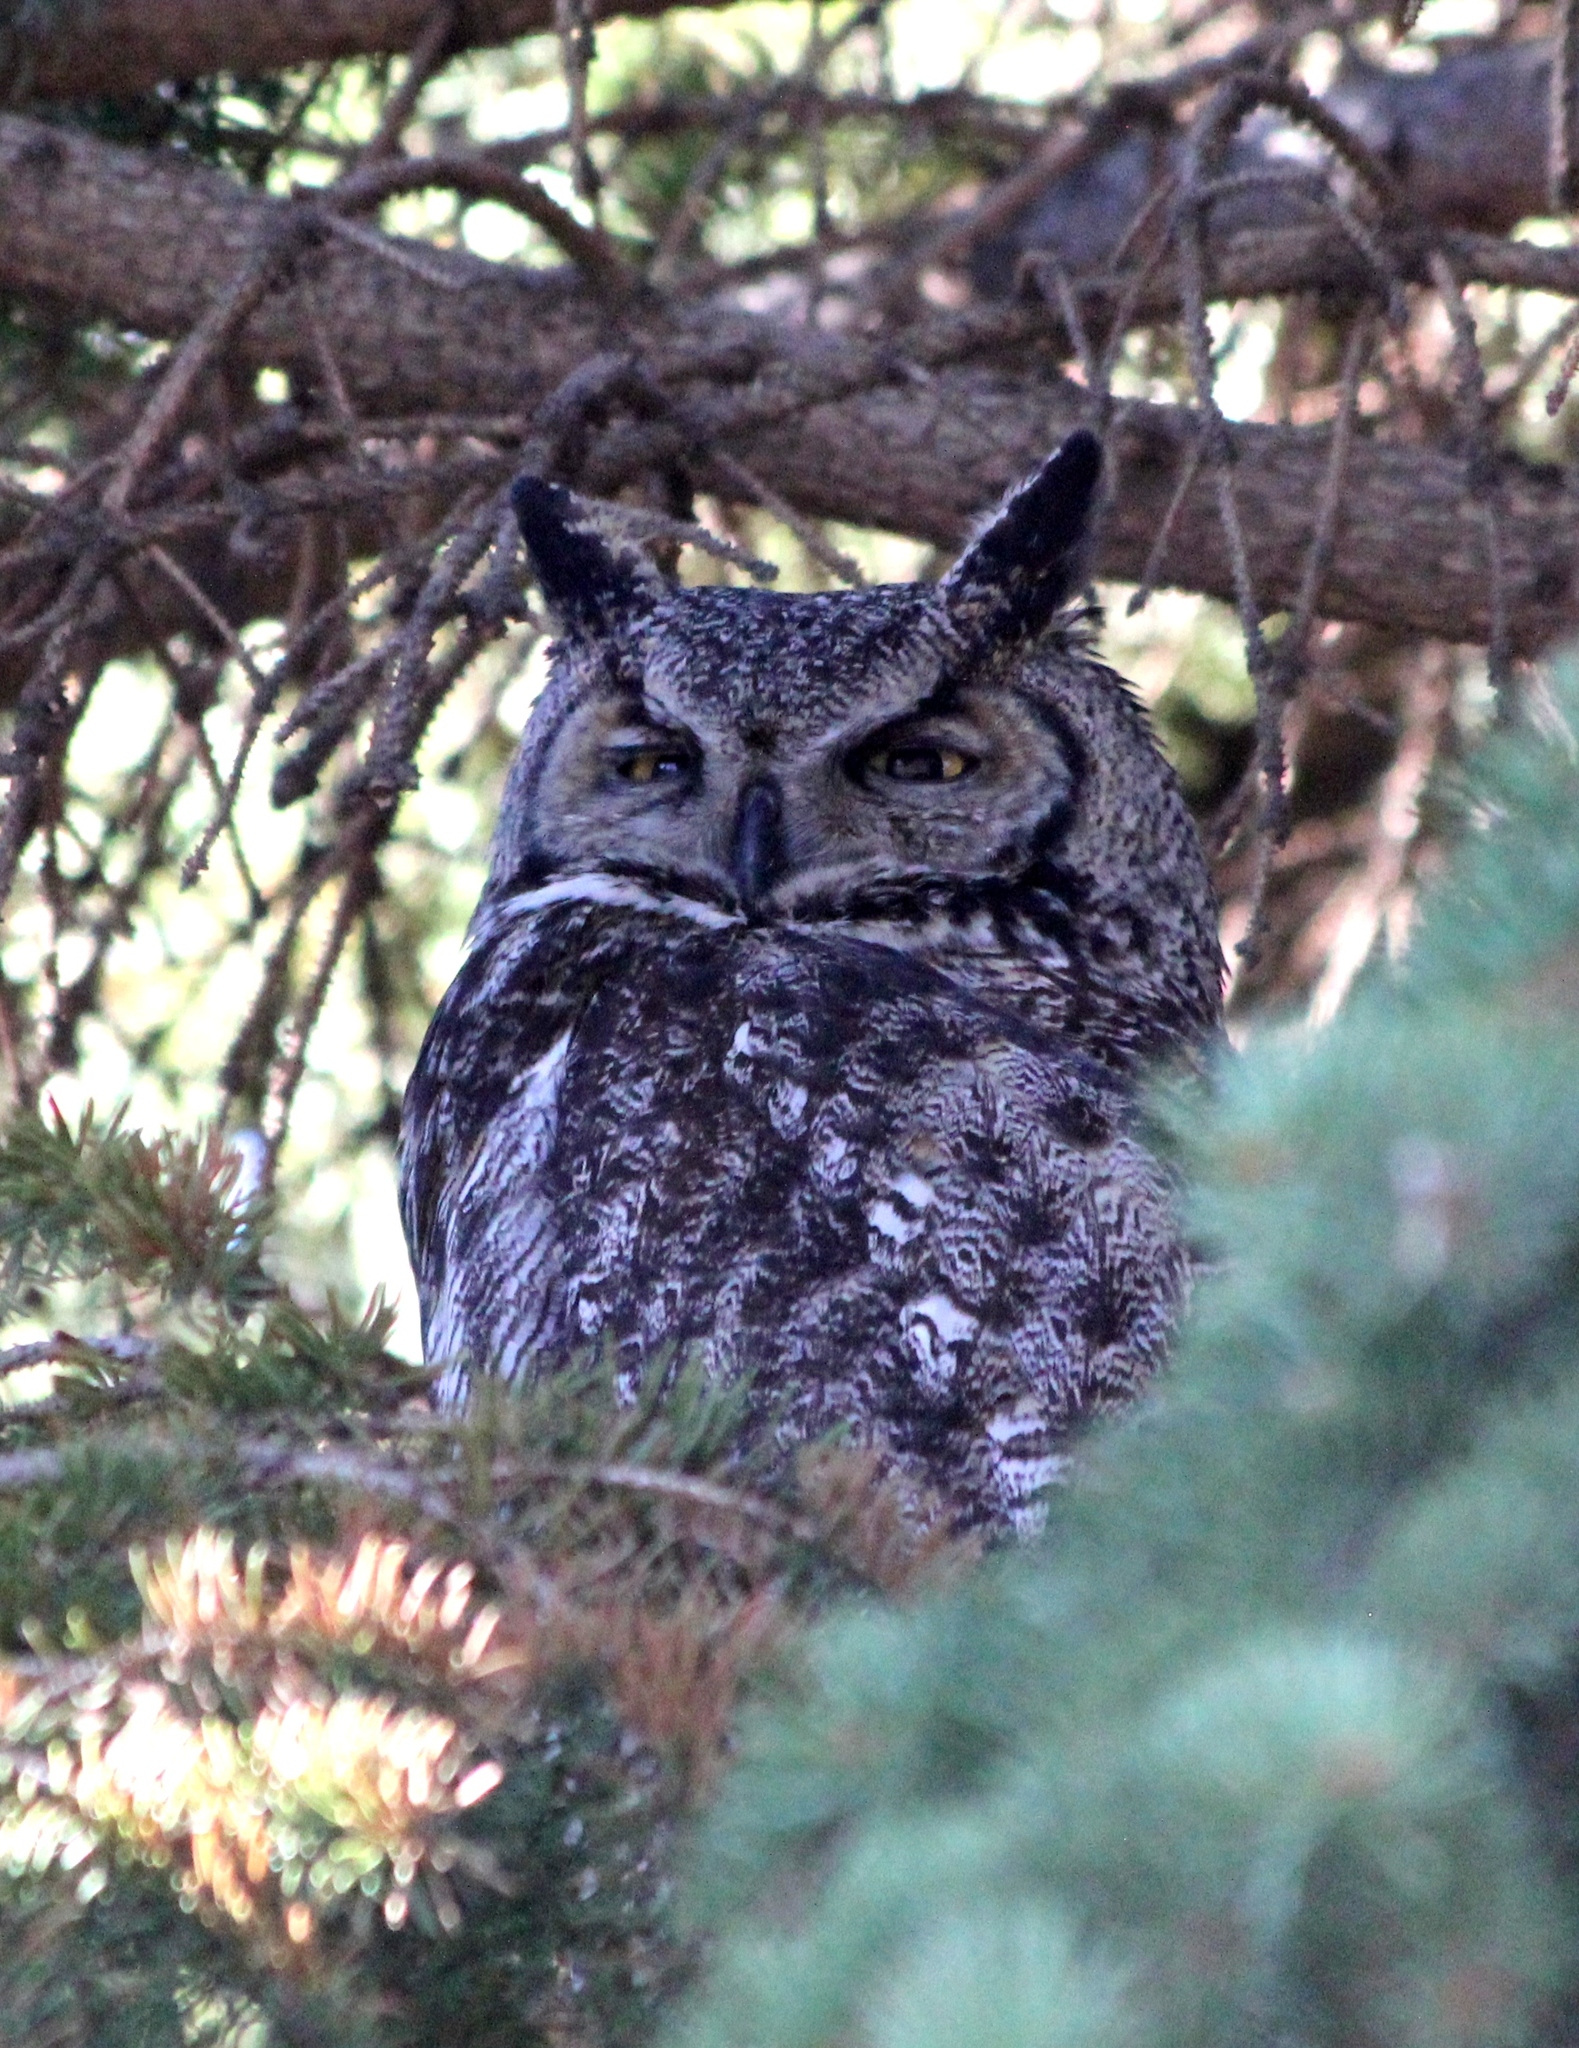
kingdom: Animalia
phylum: Chordata
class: Aves
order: Strigiformes
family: Strigidae
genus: Bubo
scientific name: Bubo virginianus
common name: Great horned owl
